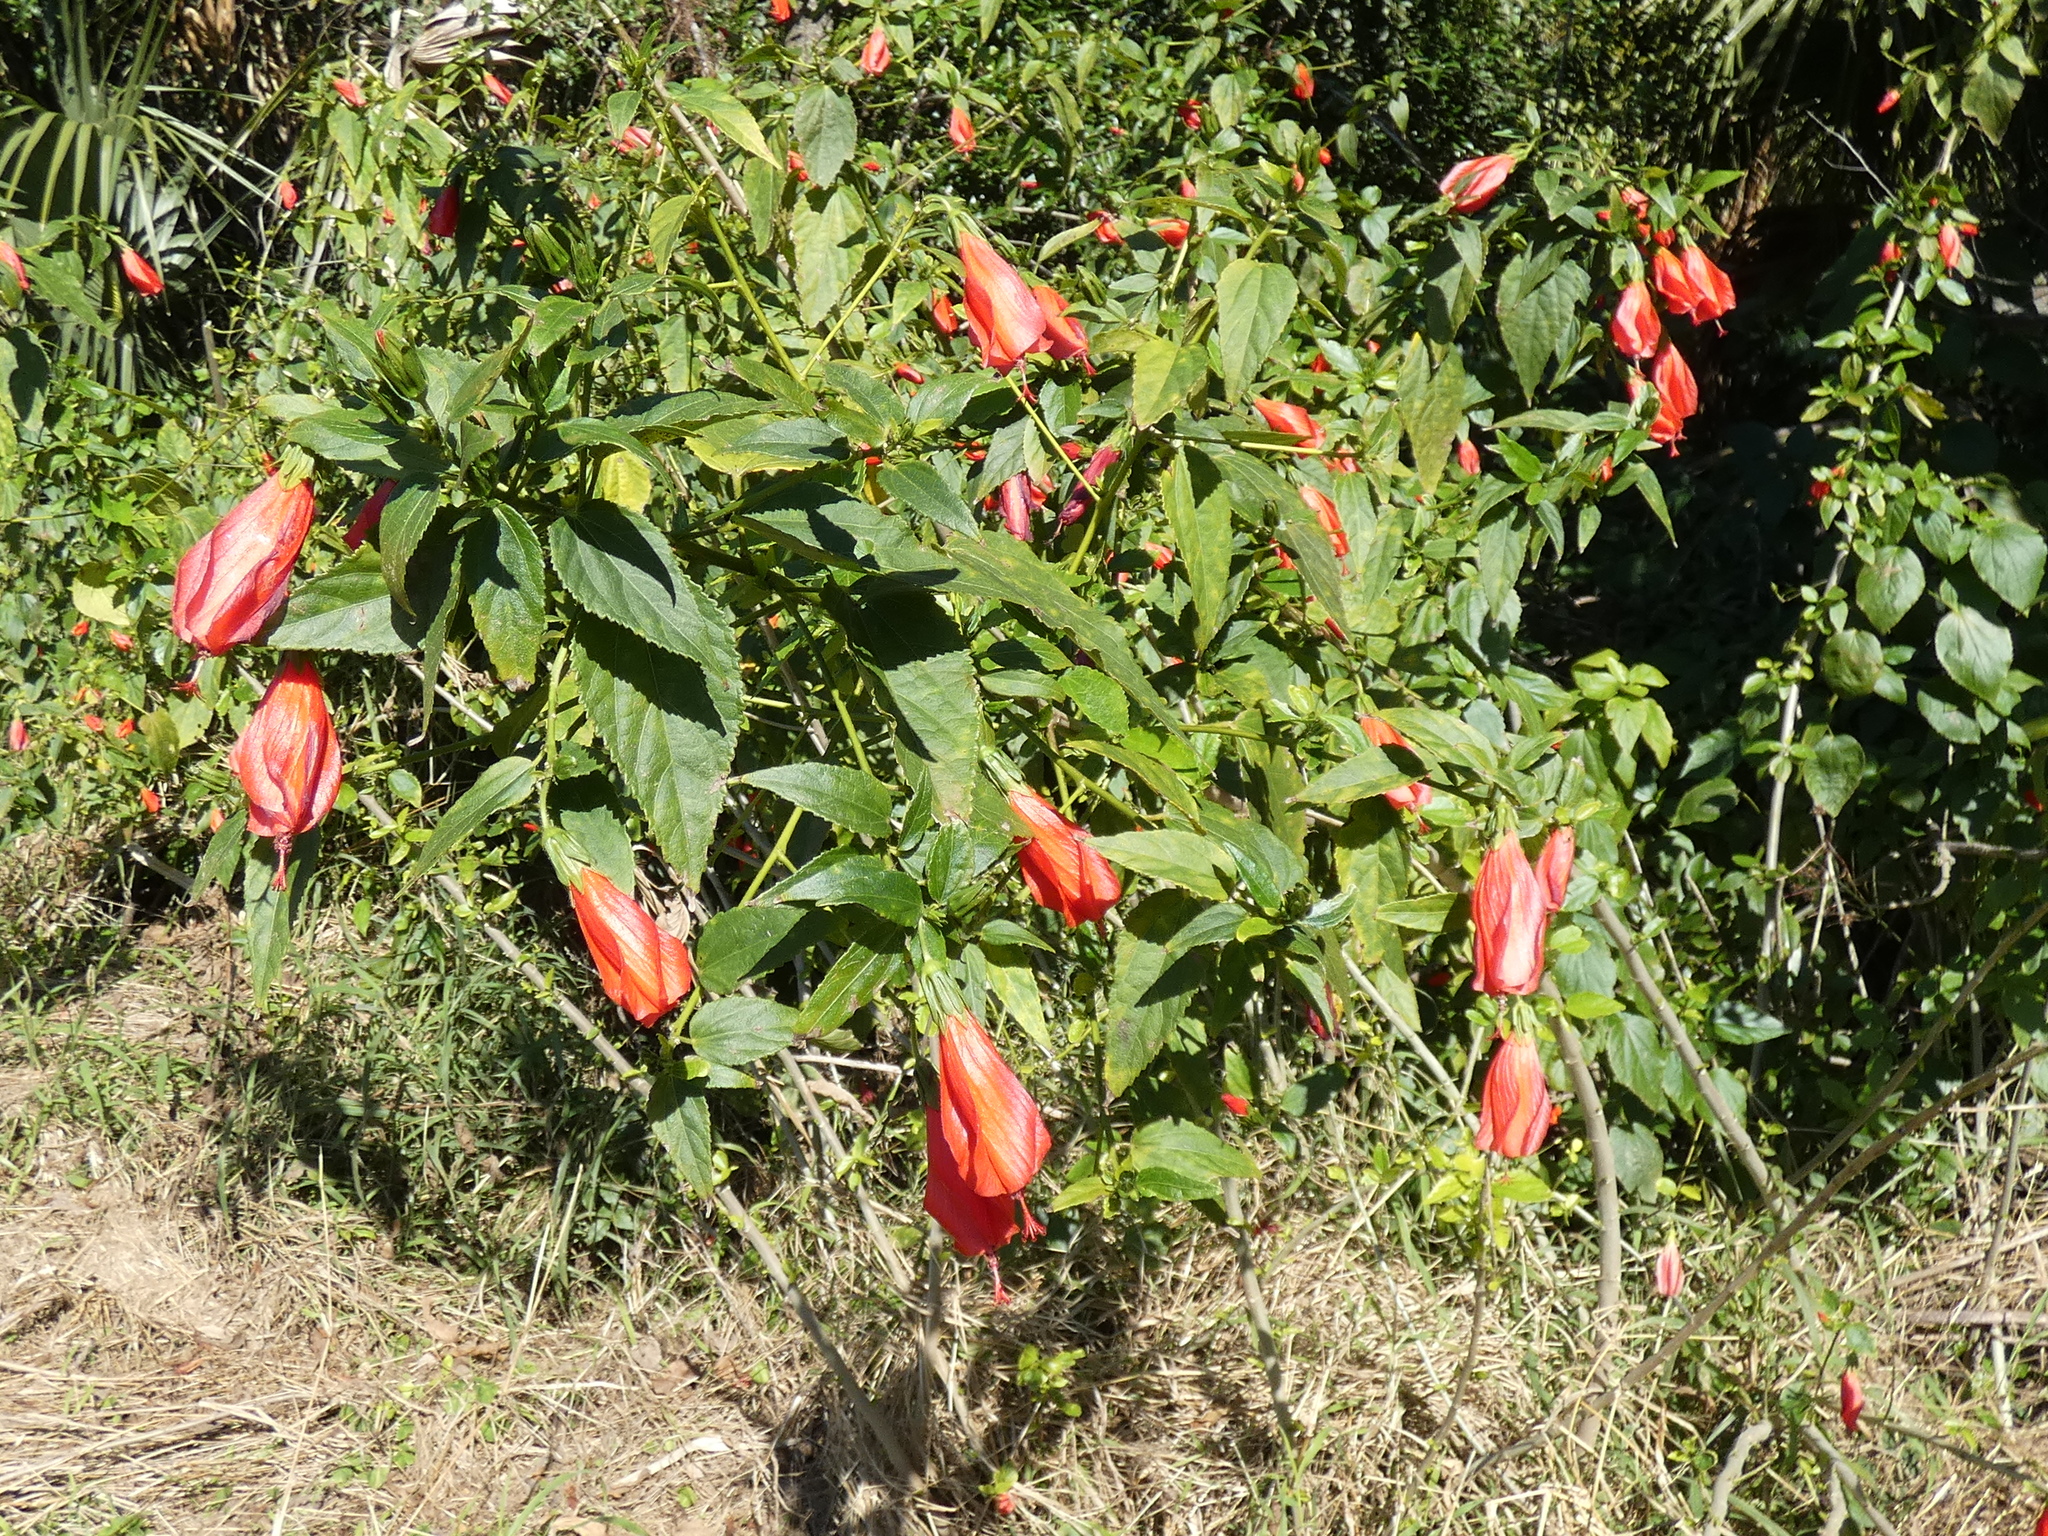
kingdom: Plantae
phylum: Tracheophyta
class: Magnoliopsida
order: Malvales
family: Malvaceae
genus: Malvaviscus
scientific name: Malvaviscus penduliflorus
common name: Mazapan
